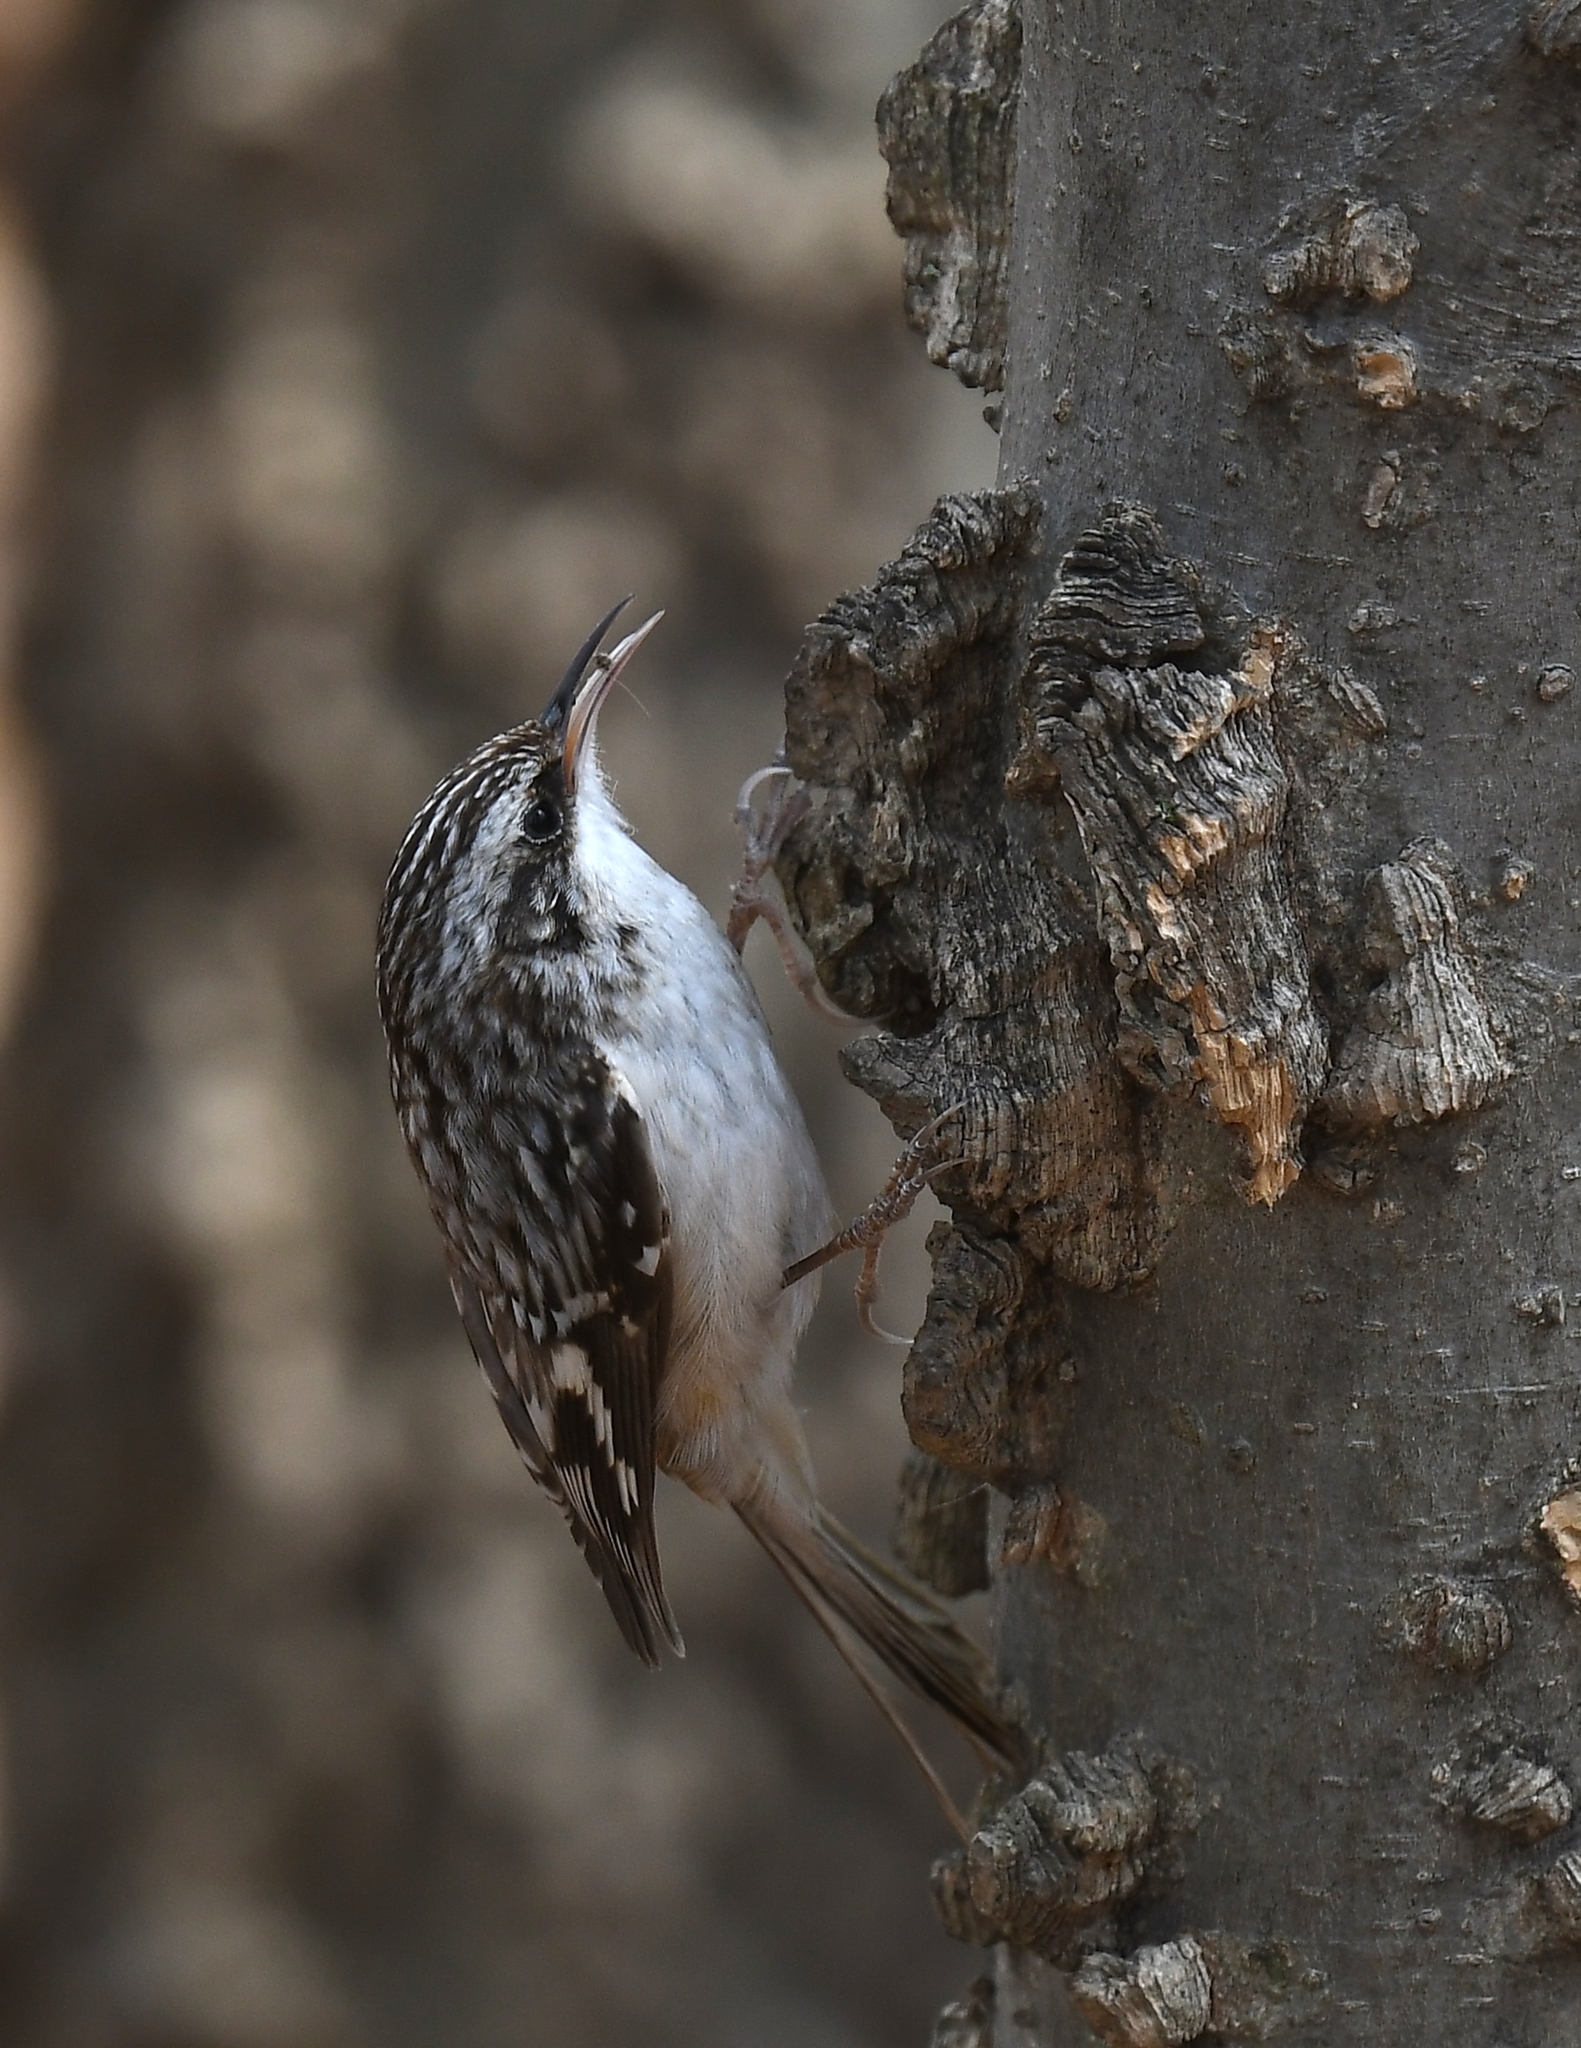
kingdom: Animalia
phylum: Chordata
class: Aves
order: Passeriformes
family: Certhiidae
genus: Certhia
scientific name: Certhia americana
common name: Brown creeper
